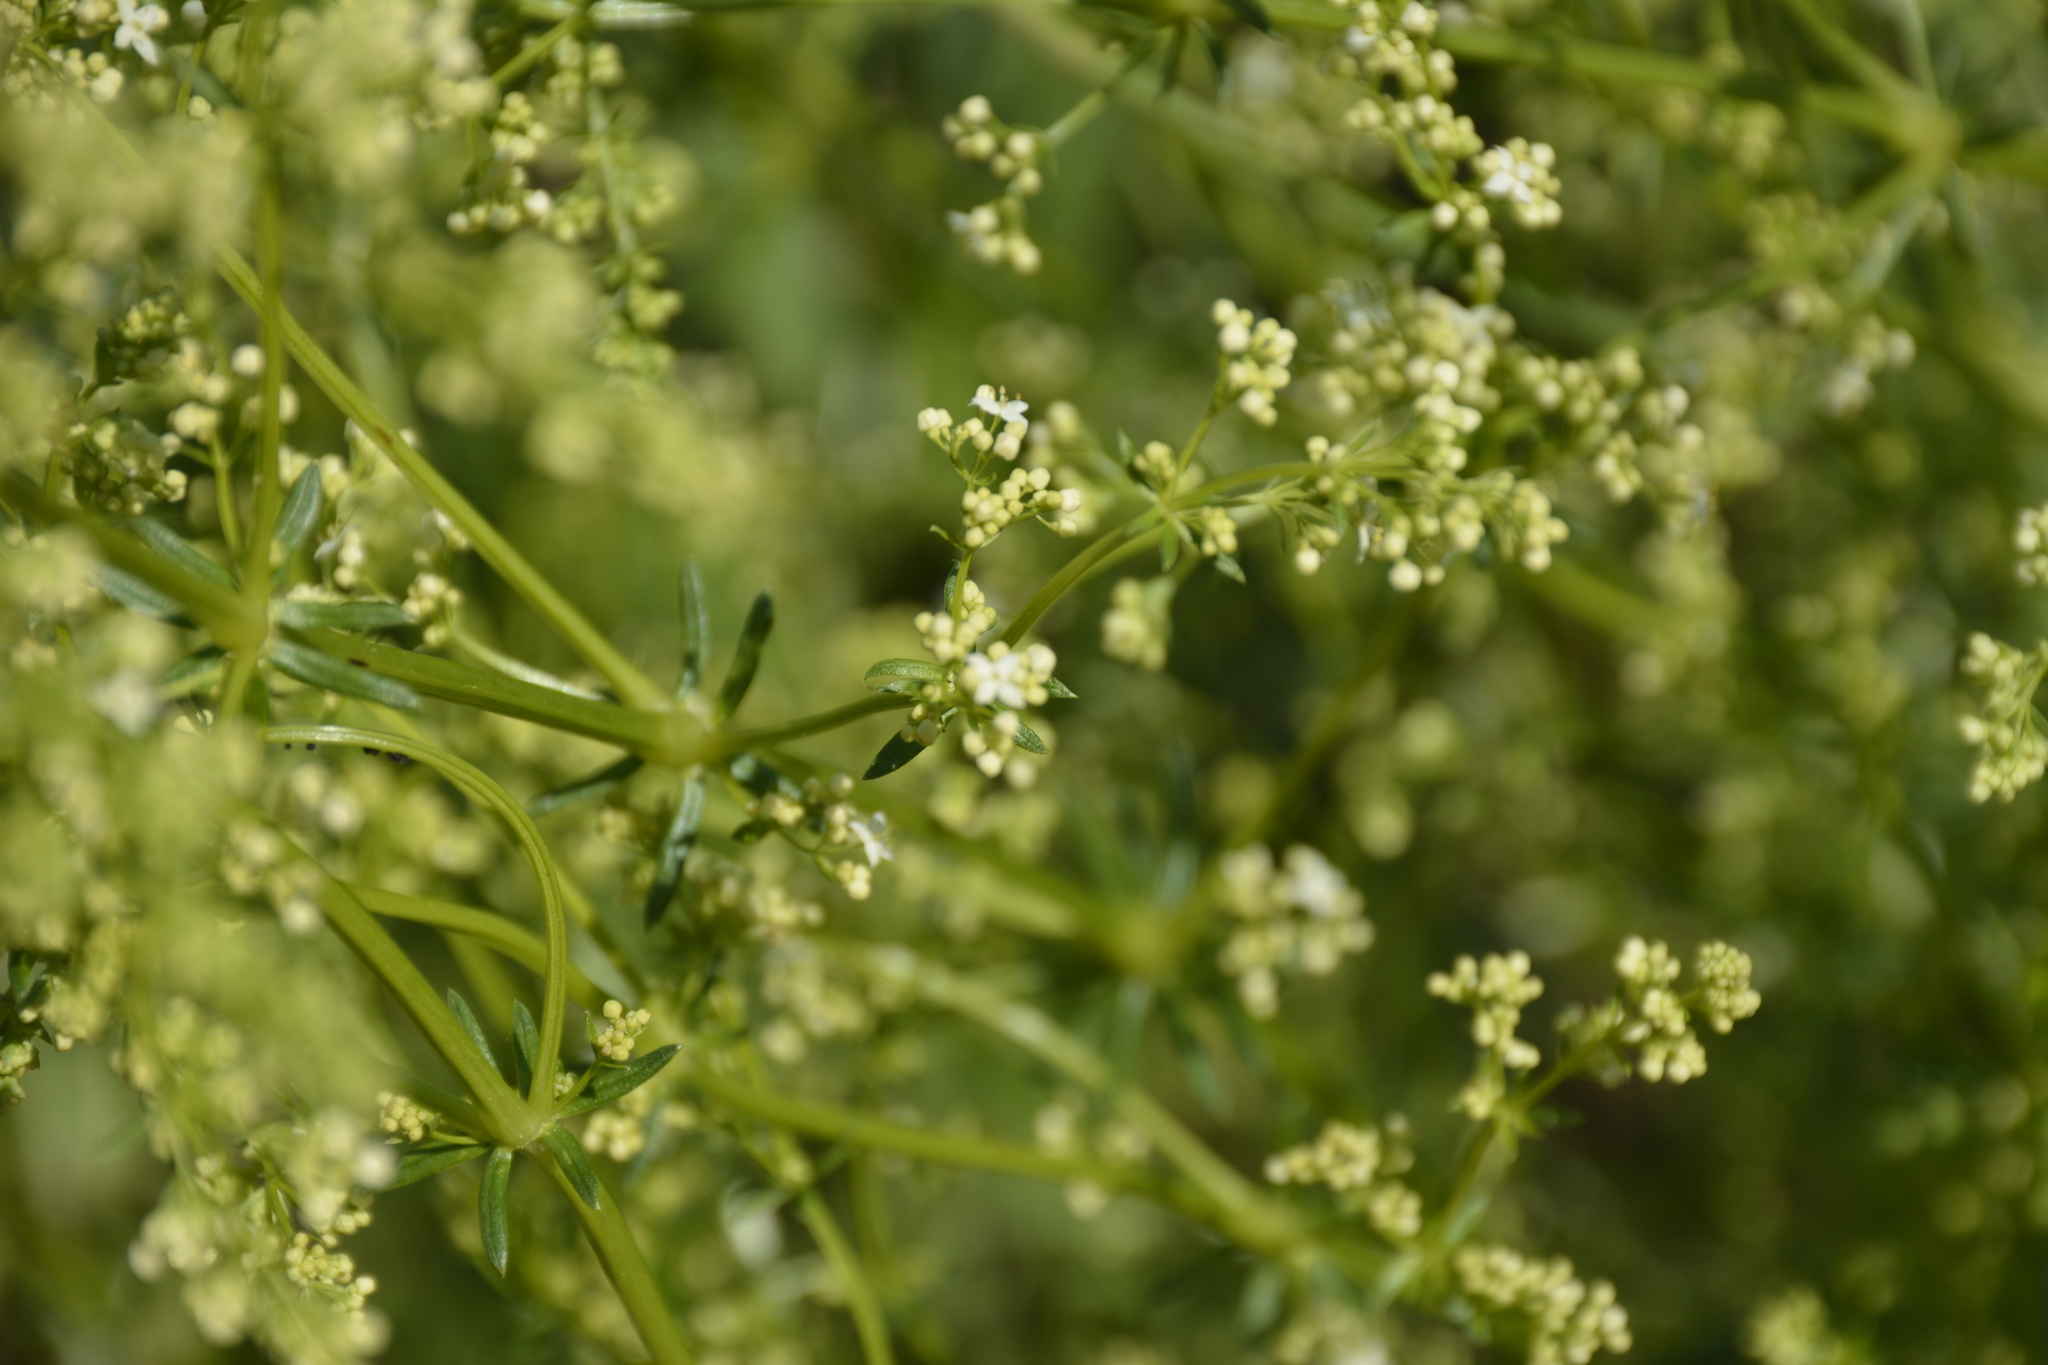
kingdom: Plantae
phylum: Tracheophyta
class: Magnoliopsida
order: Gentianales
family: Rubiaceae
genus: Galium
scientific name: Galium mollugo
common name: Hedge bedstraw
